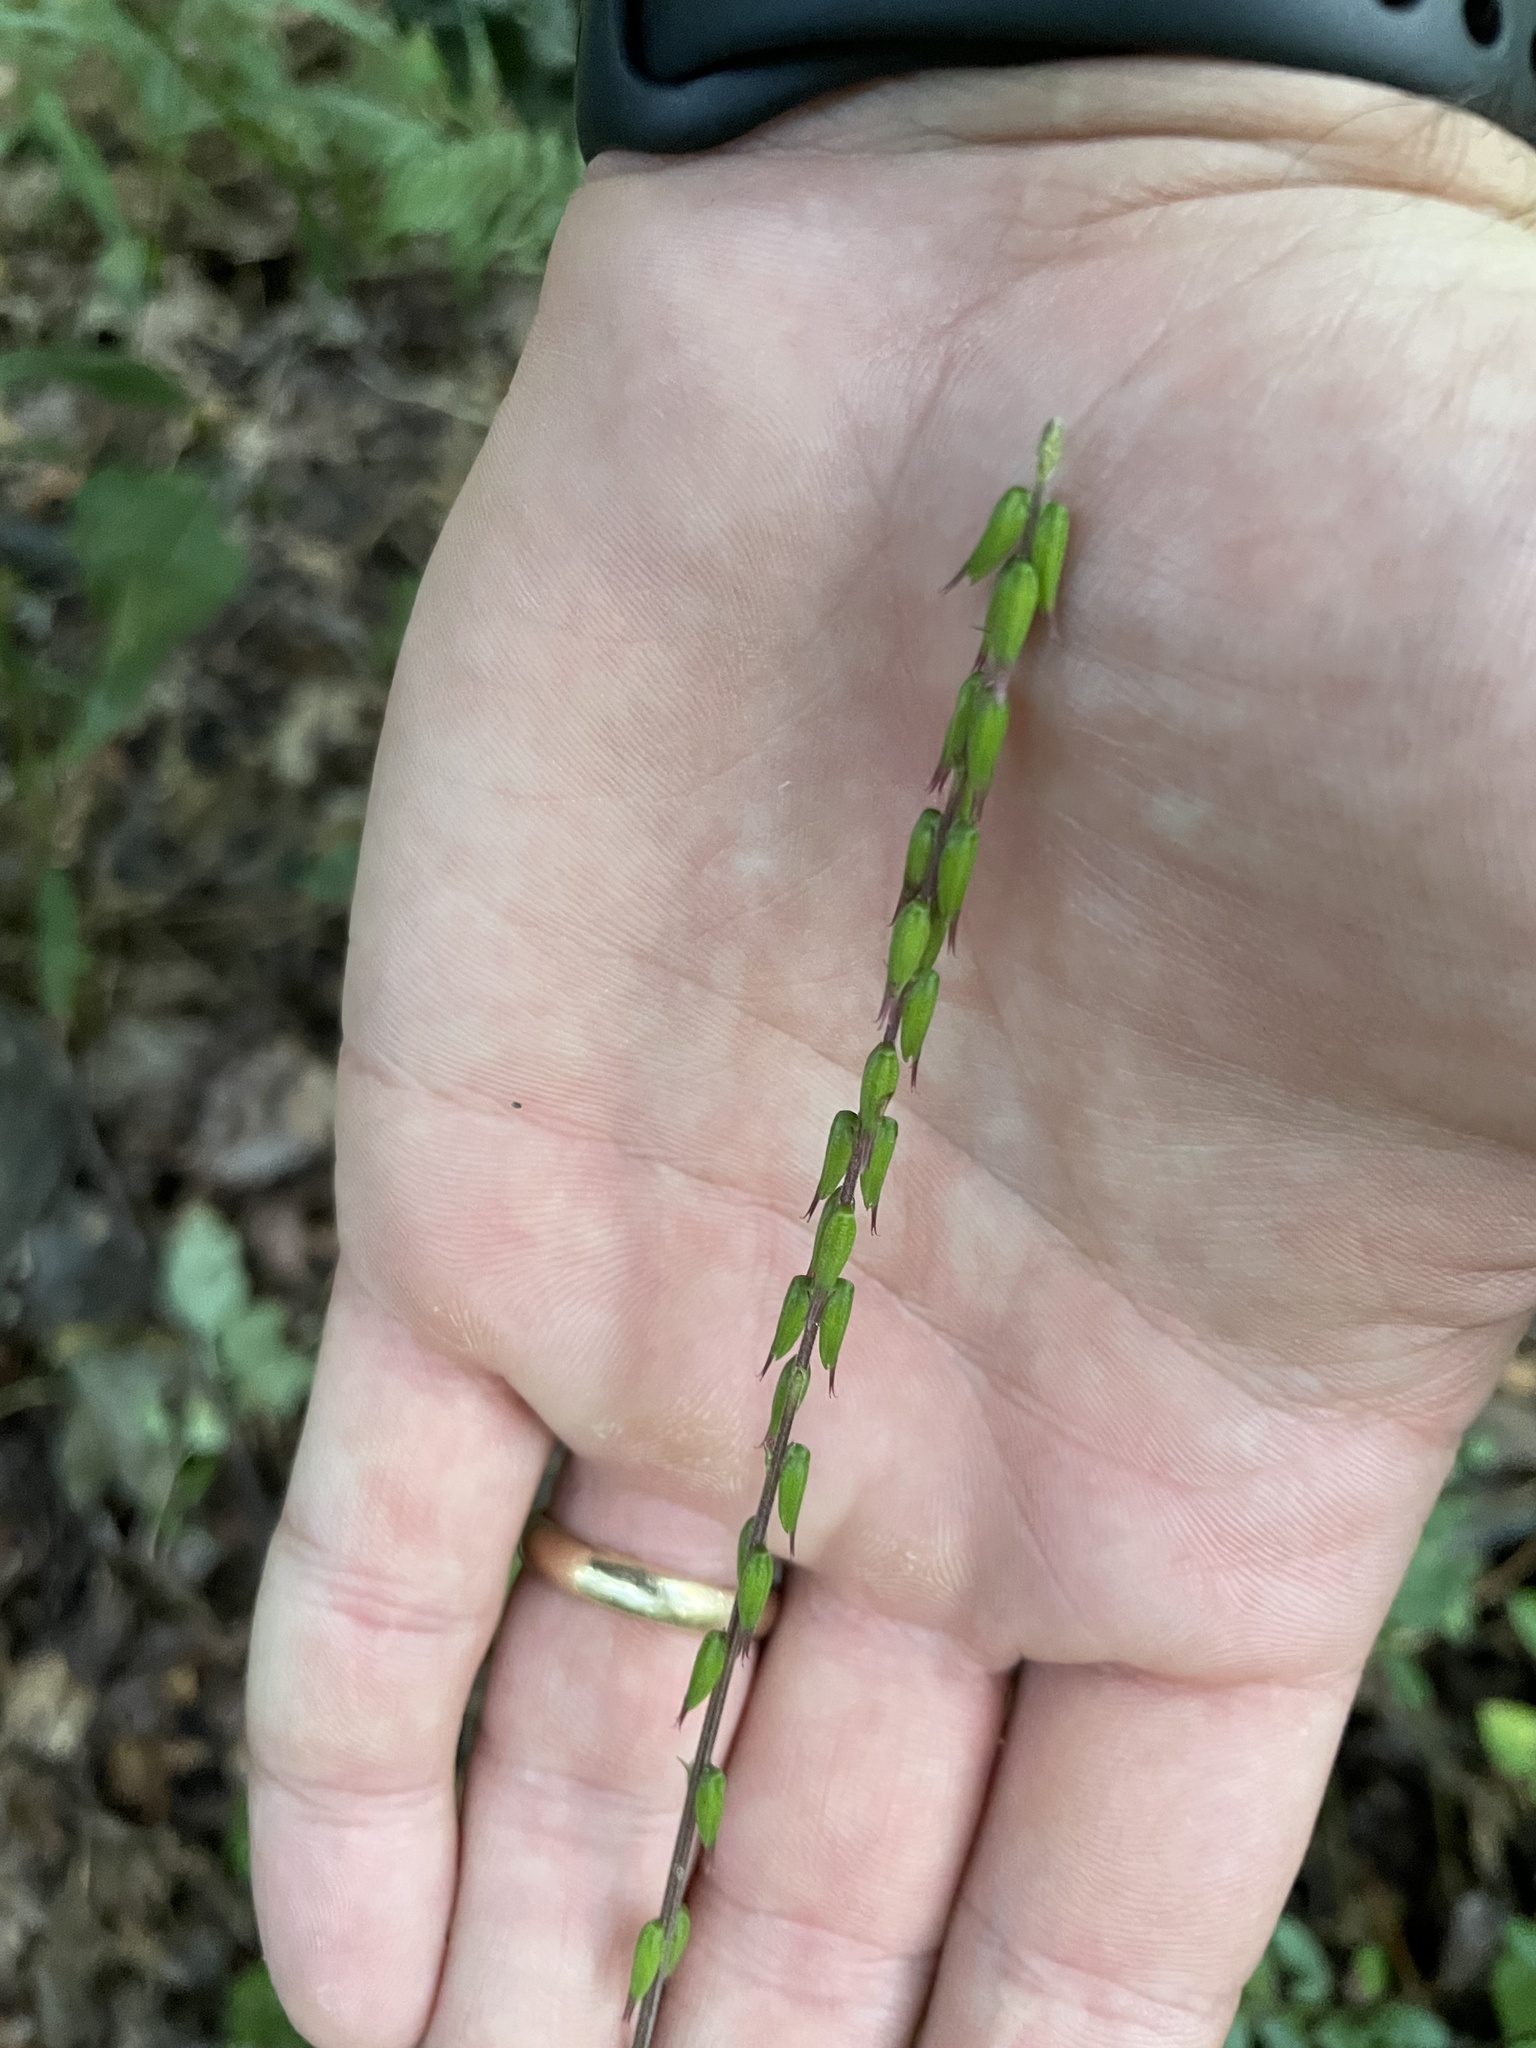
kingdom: Plantae
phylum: Tracheophyta
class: Magnoliopsida
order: Lamiales
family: Phrymaceae
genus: Phryma
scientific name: Phryma leptostachya
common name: American lopseed
